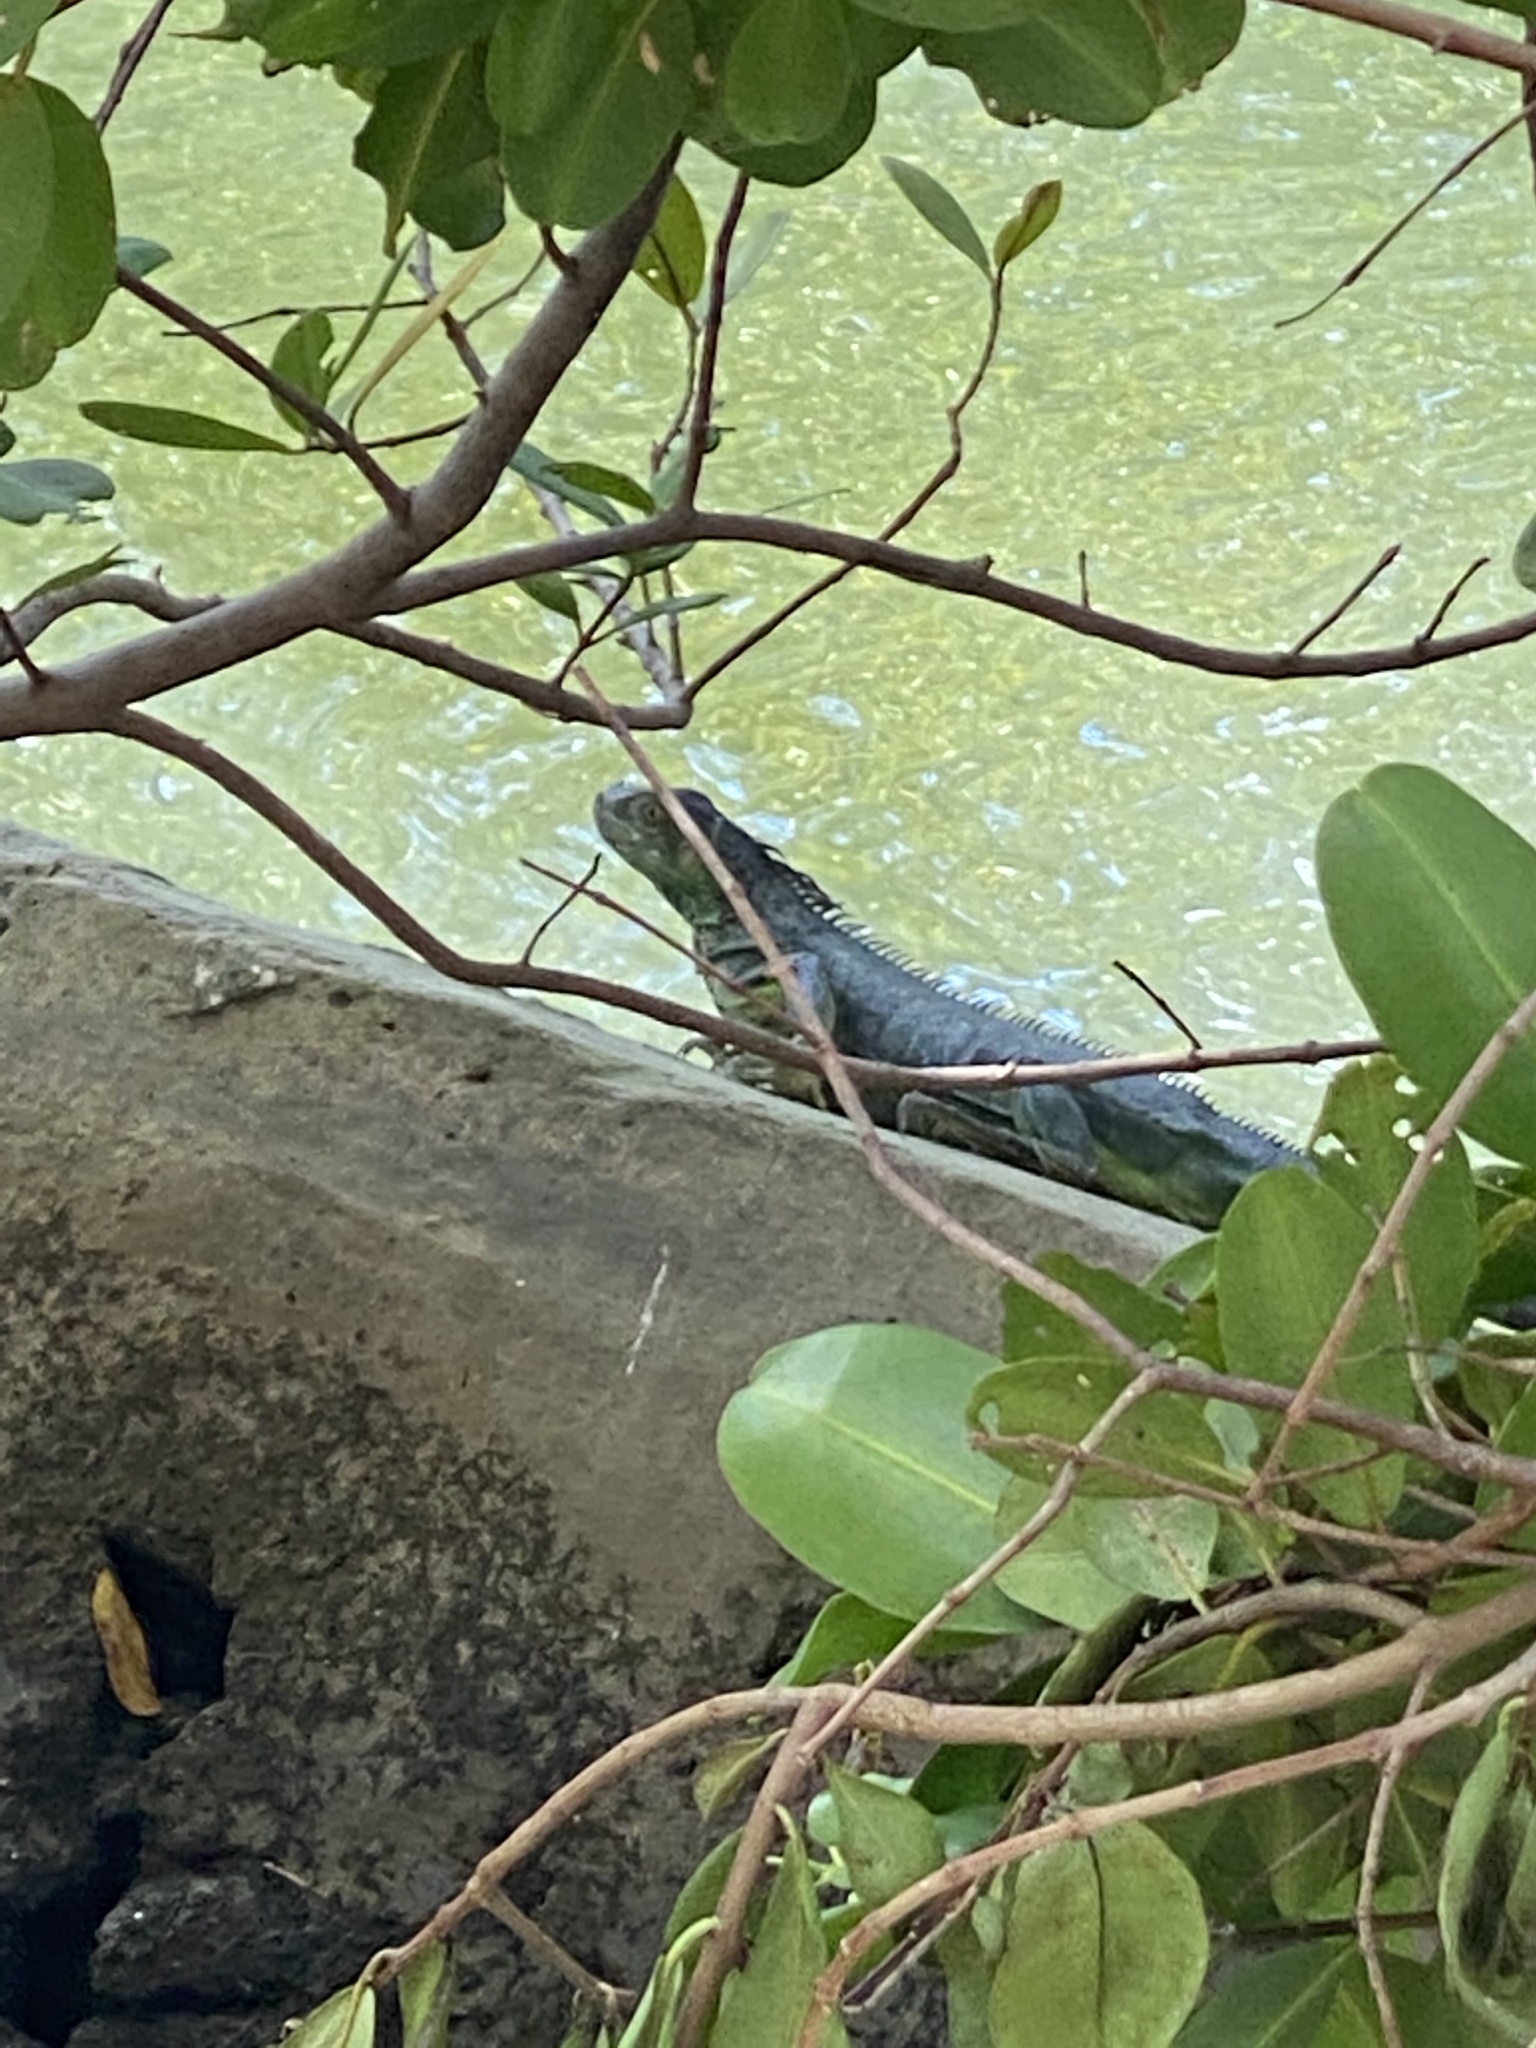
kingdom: Animalia
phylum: Chordata
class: Squamata
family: Iguanidae
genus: Iguana
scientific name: Iguana iguana
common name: Green iguana
